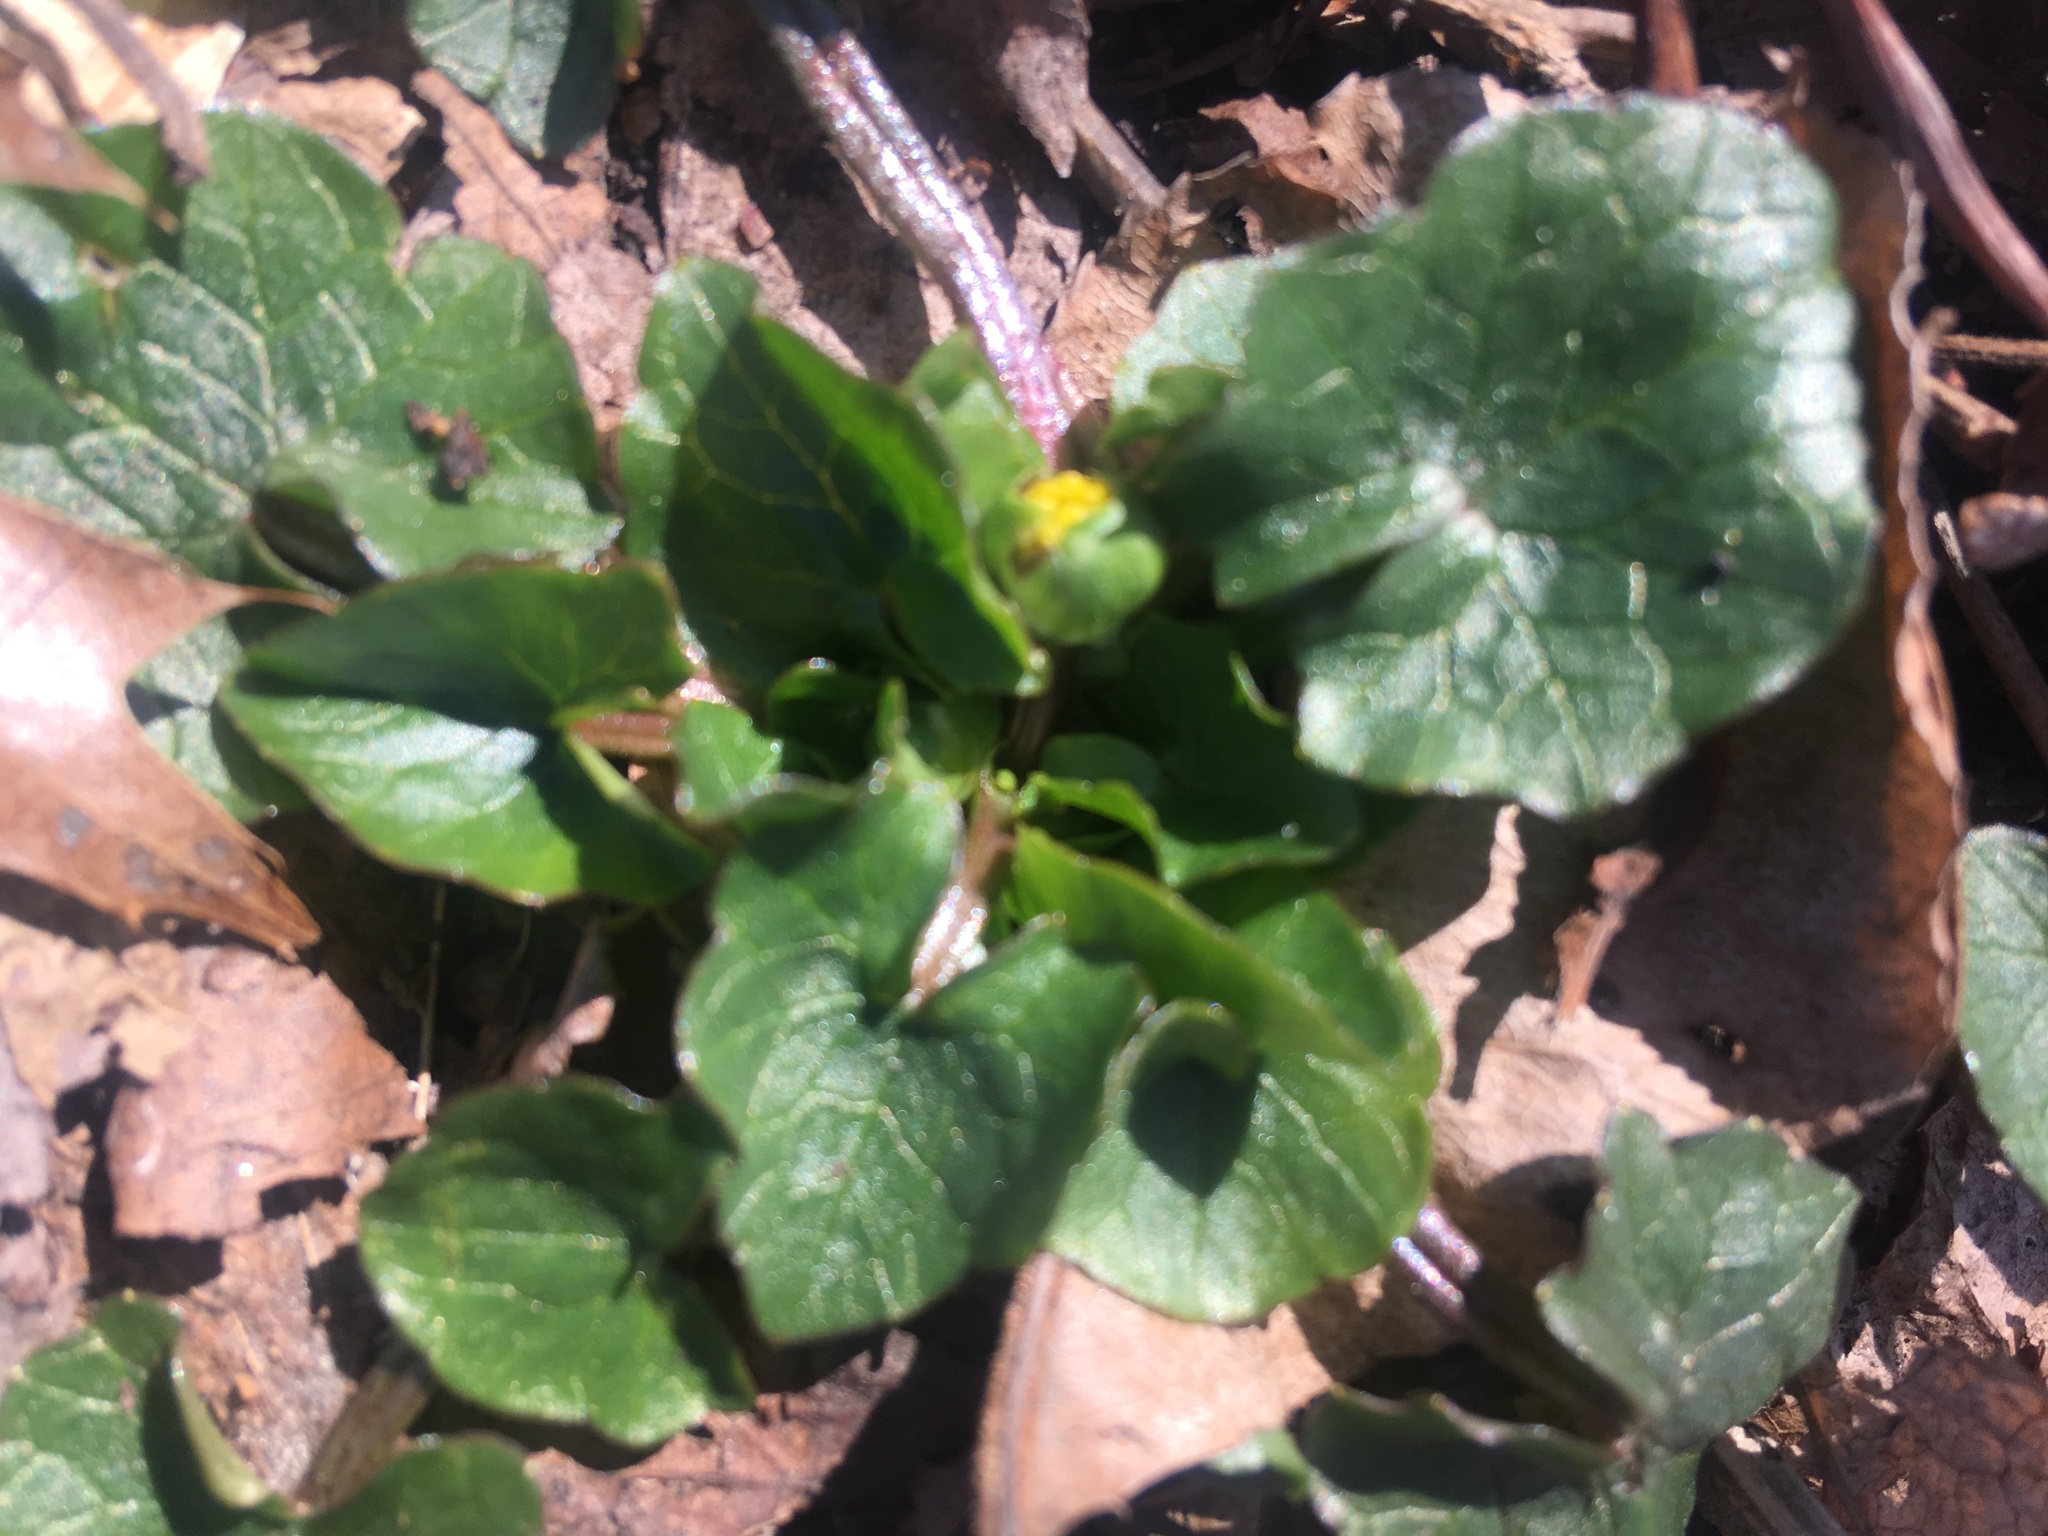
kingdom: Plantae
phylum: Tracheophyta
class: Magnoliopsida
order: Ranunculales
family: Ranunculaceae
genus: Ficaria
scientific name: Ficaria verna
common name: Lesser celandine
